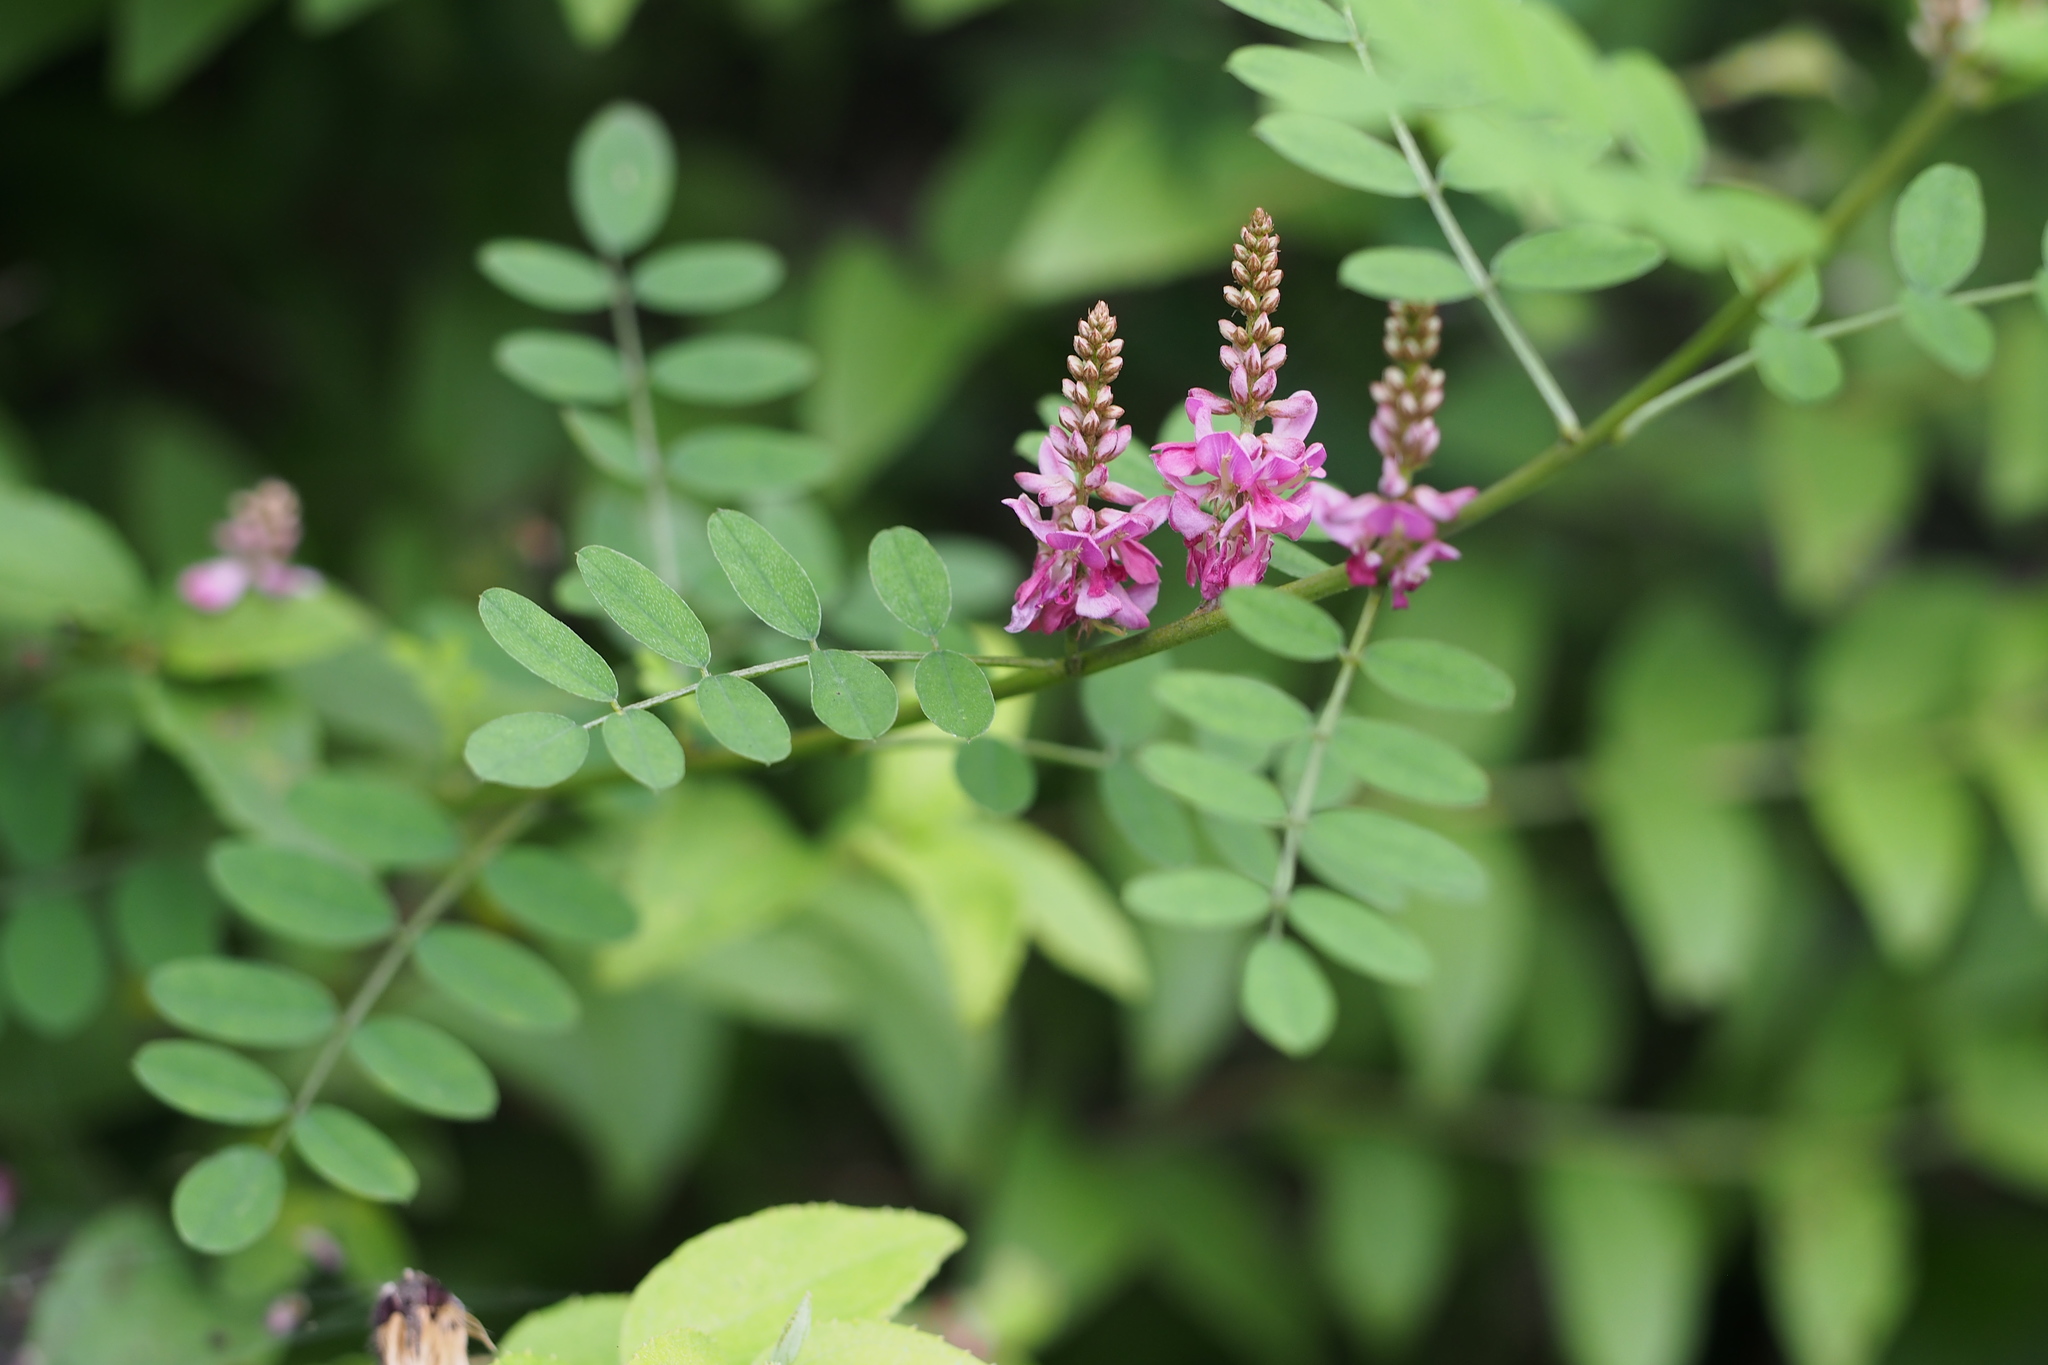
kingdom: Plantae
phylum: Tracheophyta
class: Magnoliopsida
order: Fabales
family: Fabaceae
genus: Indigofera
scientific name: Indigofera bungeana
